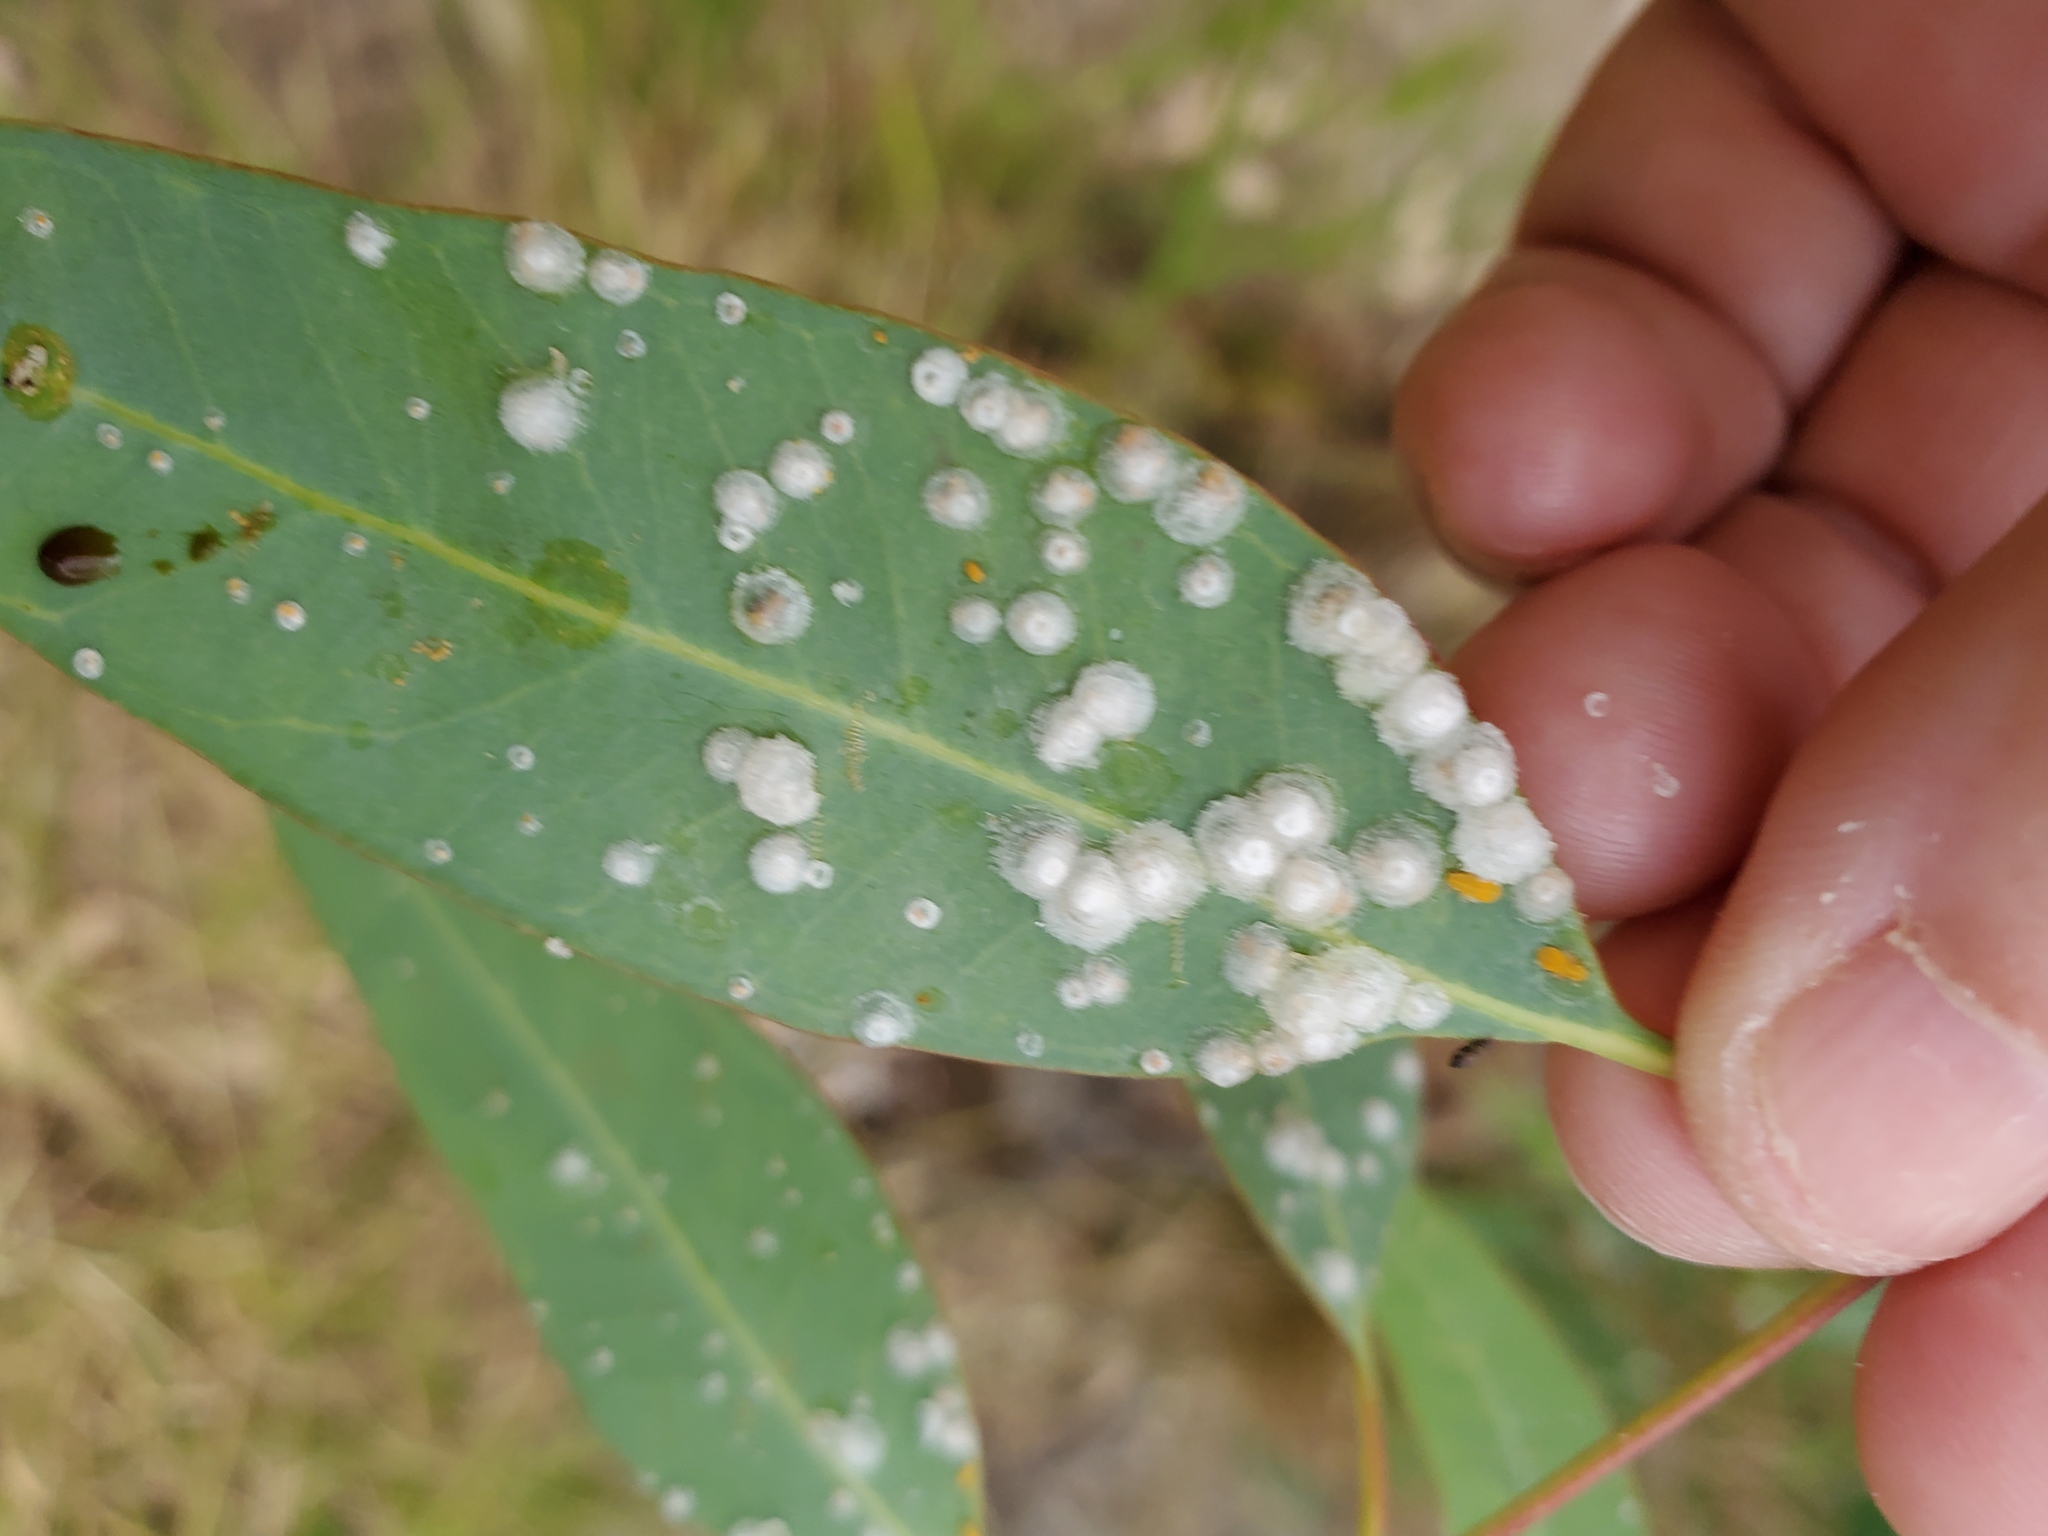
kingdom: Animalia
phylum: Arthropoda
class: Insecta
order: Hemiptera
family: Aphalaridae
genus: Glycaspis
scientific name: Glycaspis brimblecombei
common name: Red gum lerp psyllid
